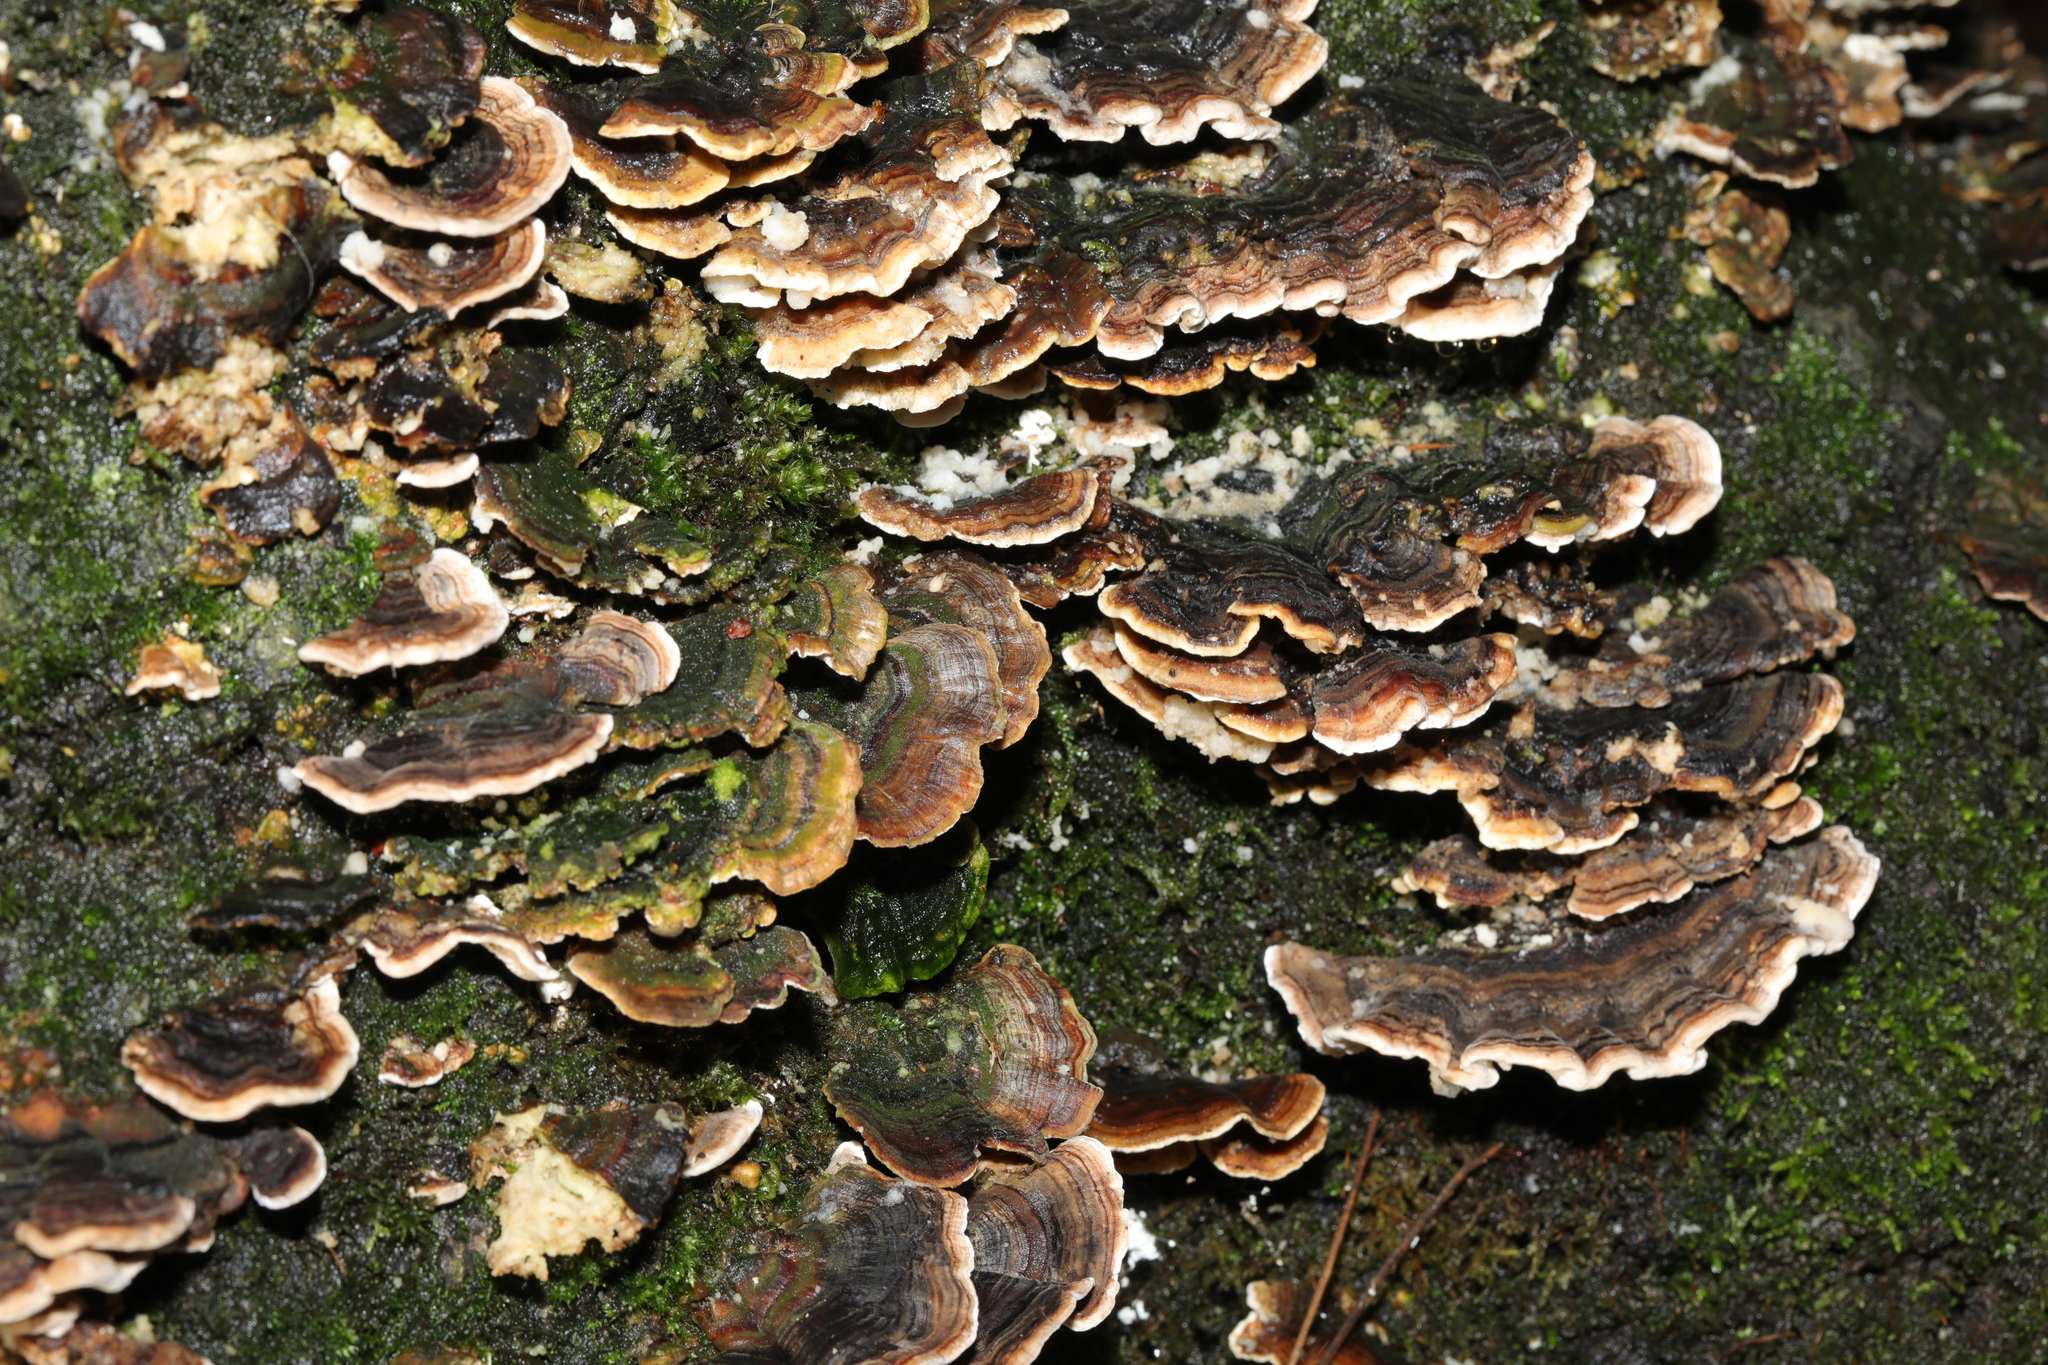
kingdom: Fungi
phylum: Basidiomycota
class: Agaricomycetes
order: Polyporales
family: Polyporaceae
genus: Trametes
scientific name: Trametes versicolor
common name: Turkeytail
